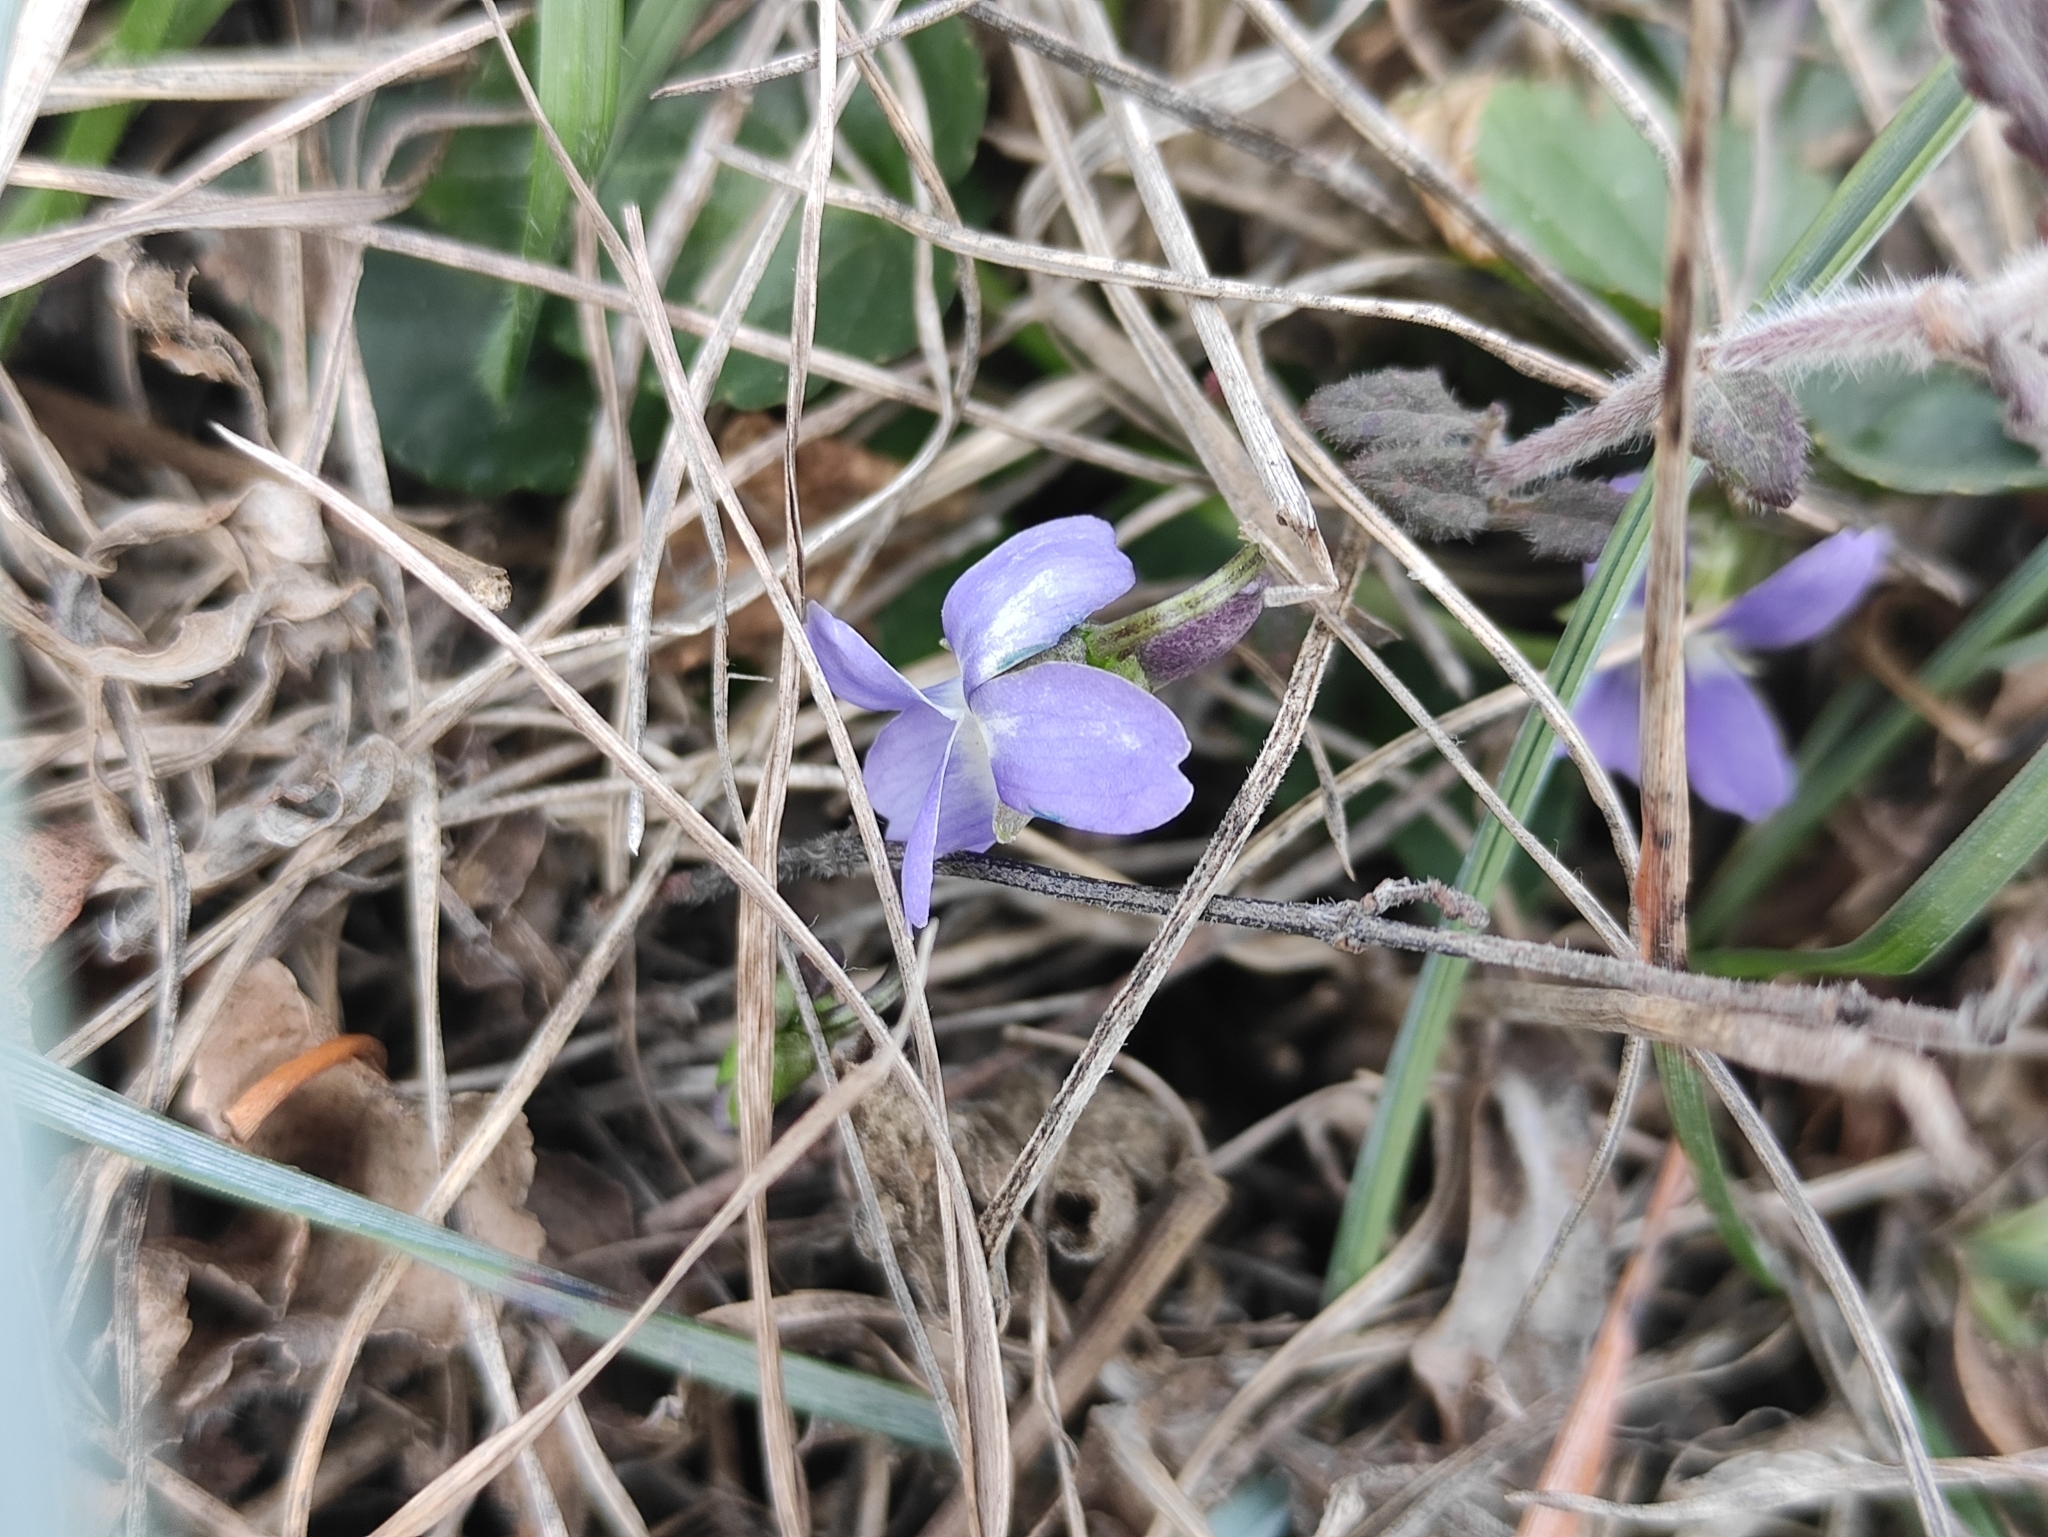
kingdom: Plantae
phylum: Tracheophyta
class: Magnoliopsida
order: Malpighiales
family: Violaceae
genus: Viola
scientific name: Viola alba
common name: White violet
